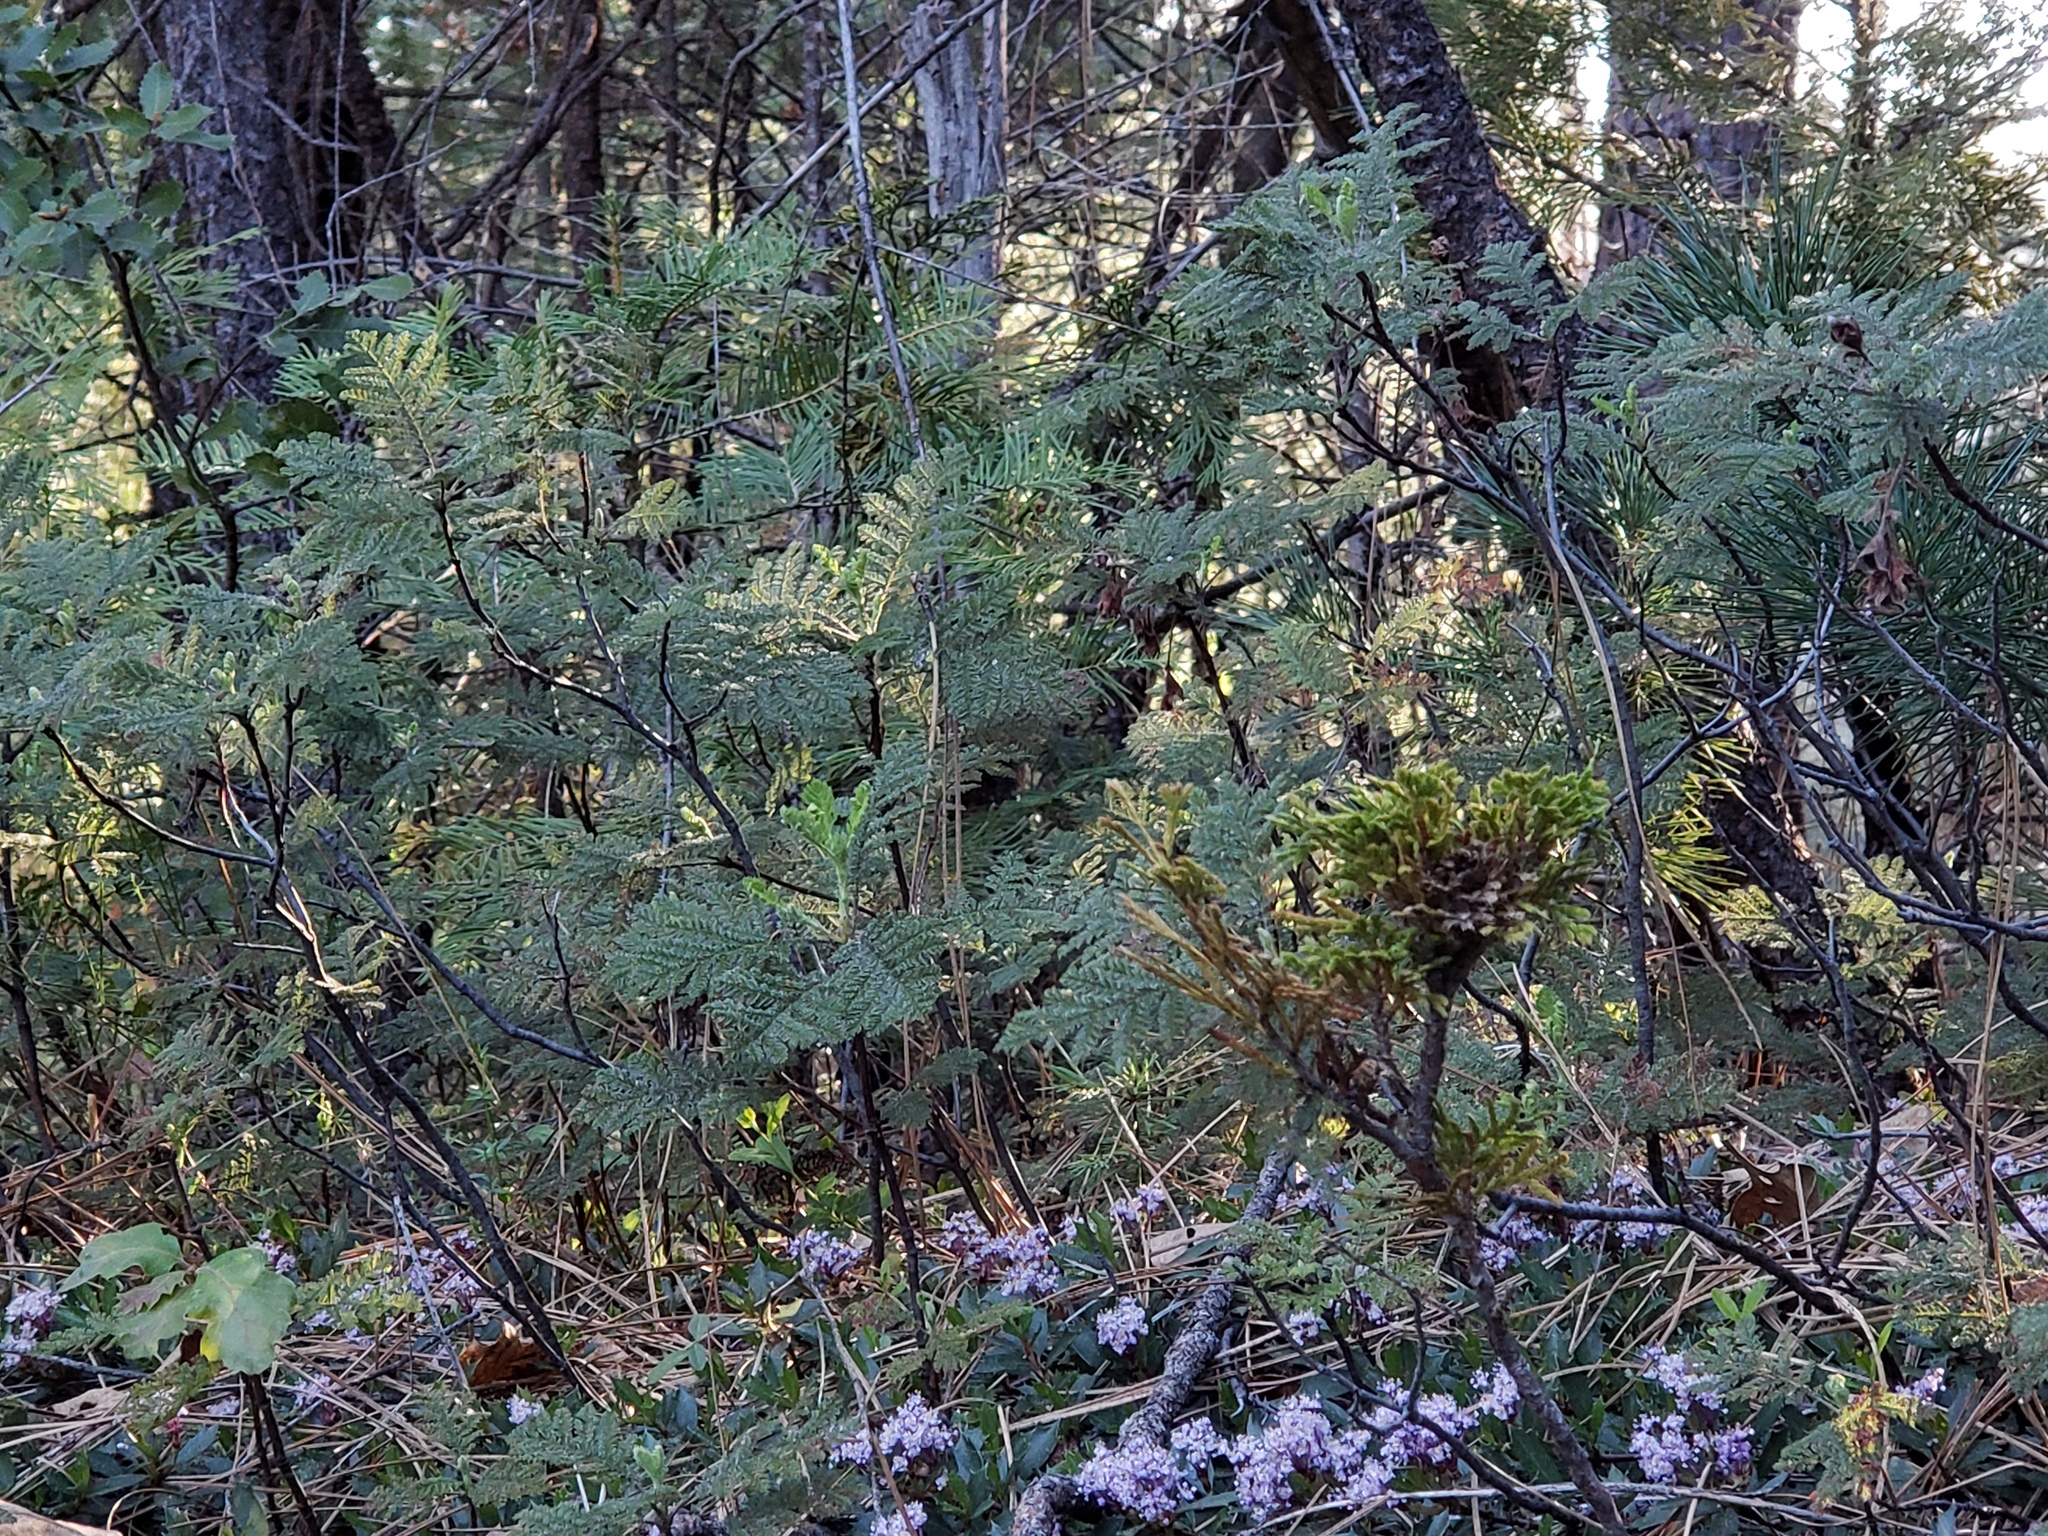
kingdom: Plantae
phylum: Tracheophyta
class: Magnoliopsida
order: Rosales
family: Rosaceae
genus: Chamaebatia
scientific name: Chamaebatia foliolosa
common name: Mountain misery
